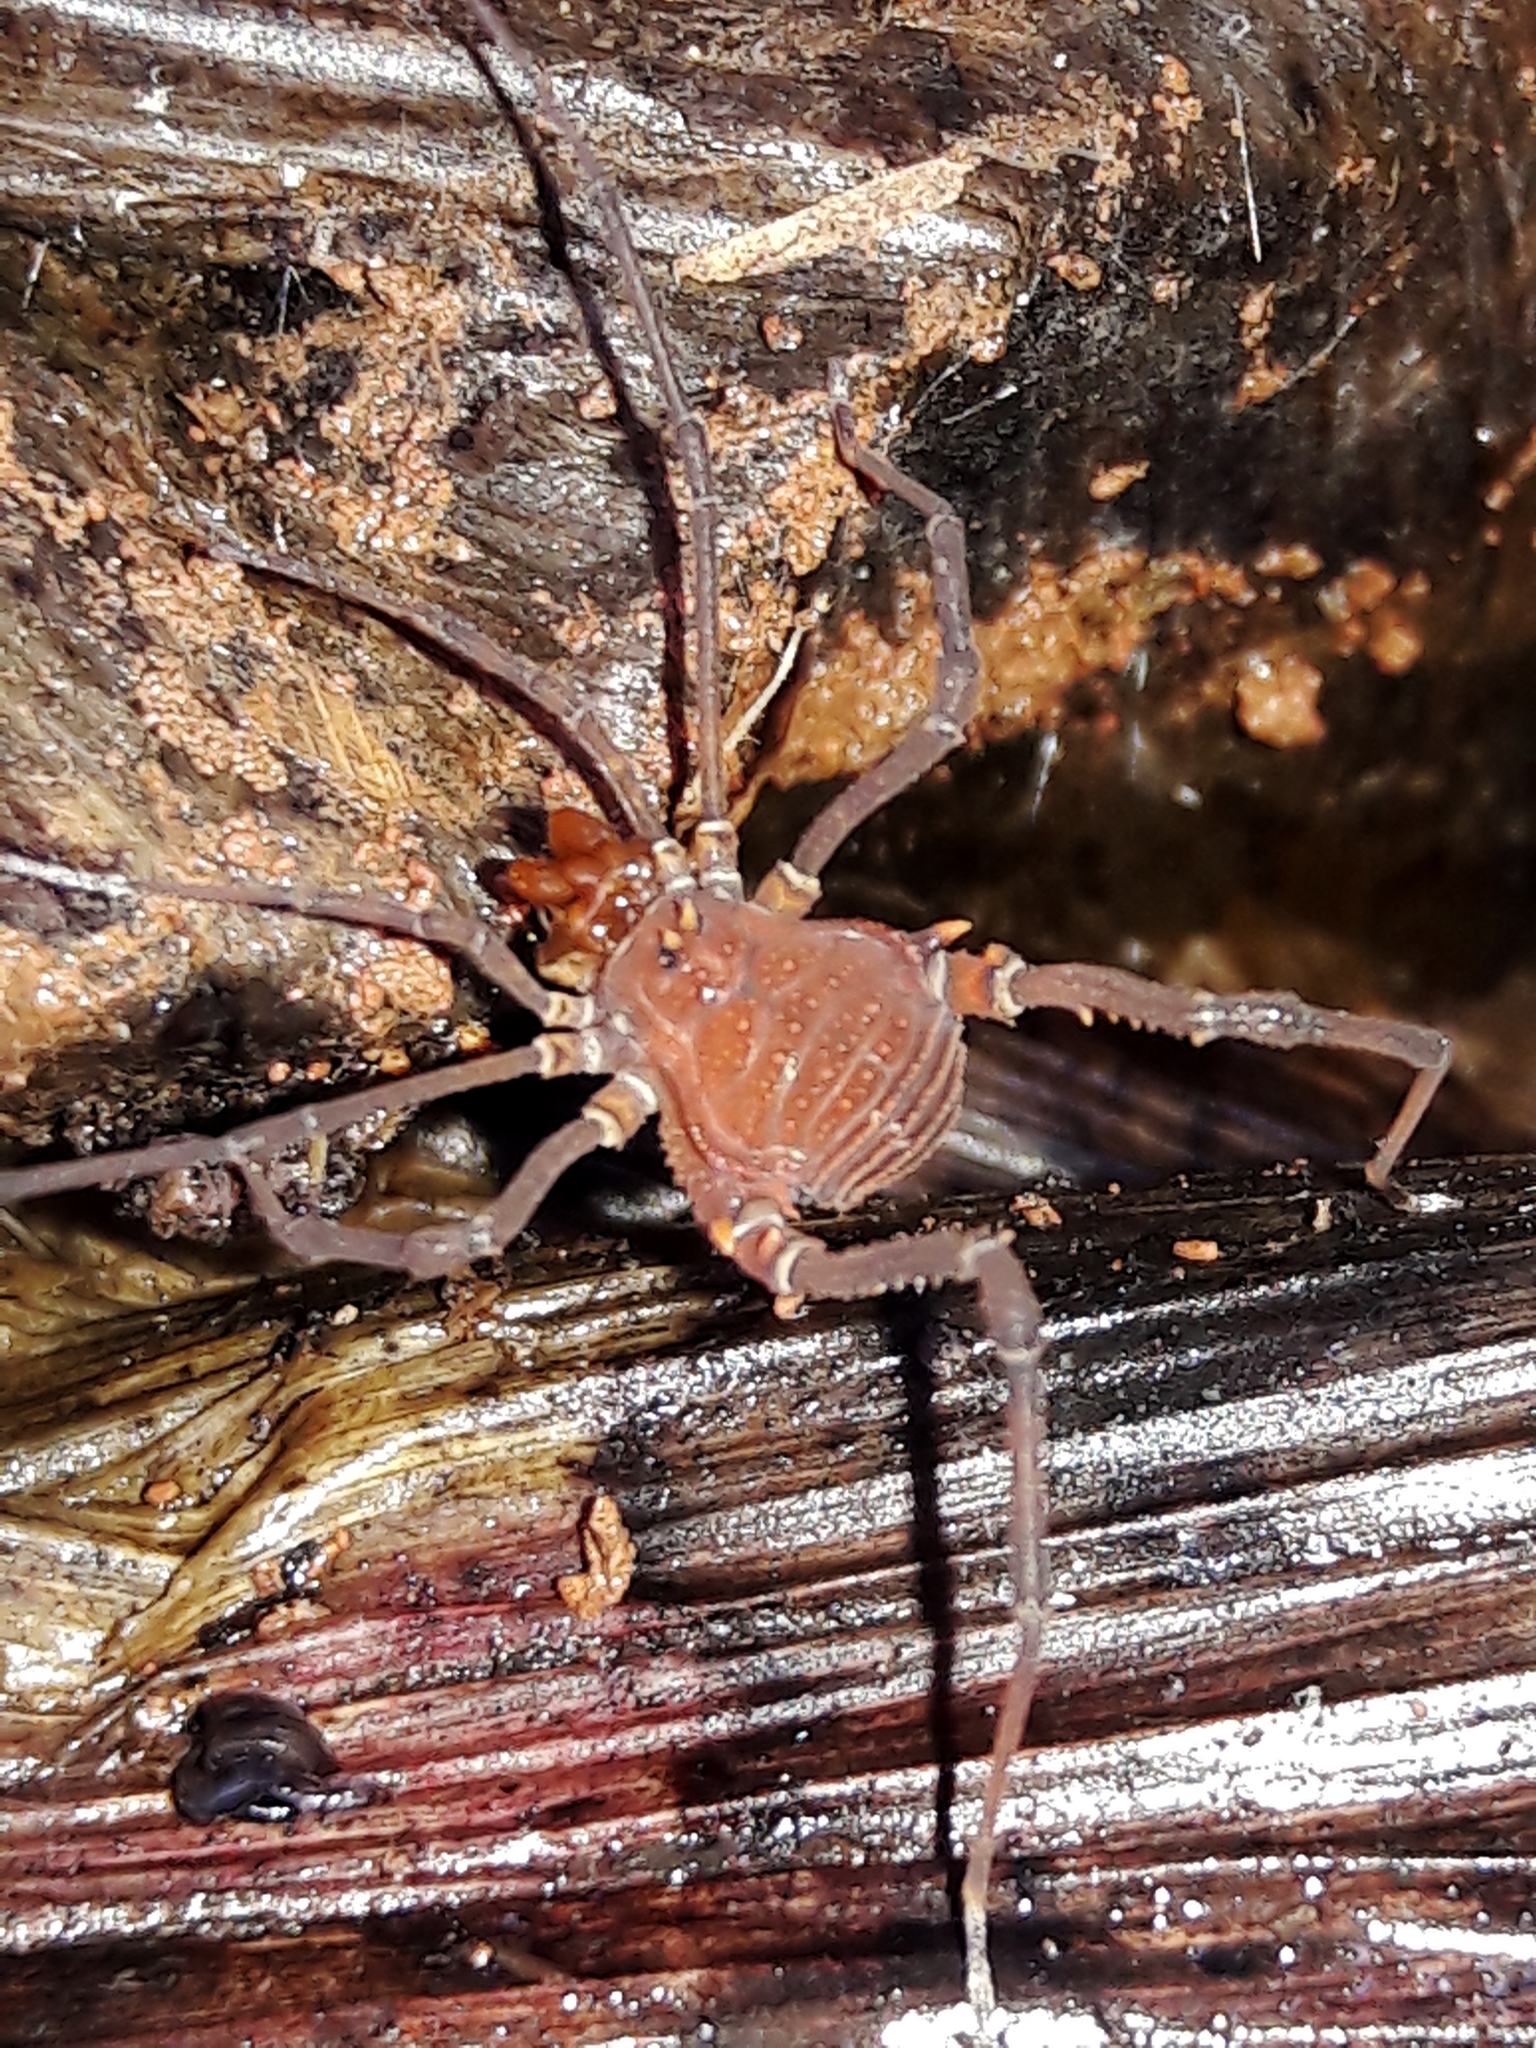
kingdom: Animalia
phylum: Arthropoda
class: Arachnida
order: Opiliones
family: Gonyleptidae
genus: Discocyrtanus
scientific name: Discocyrtanus oliverioi
